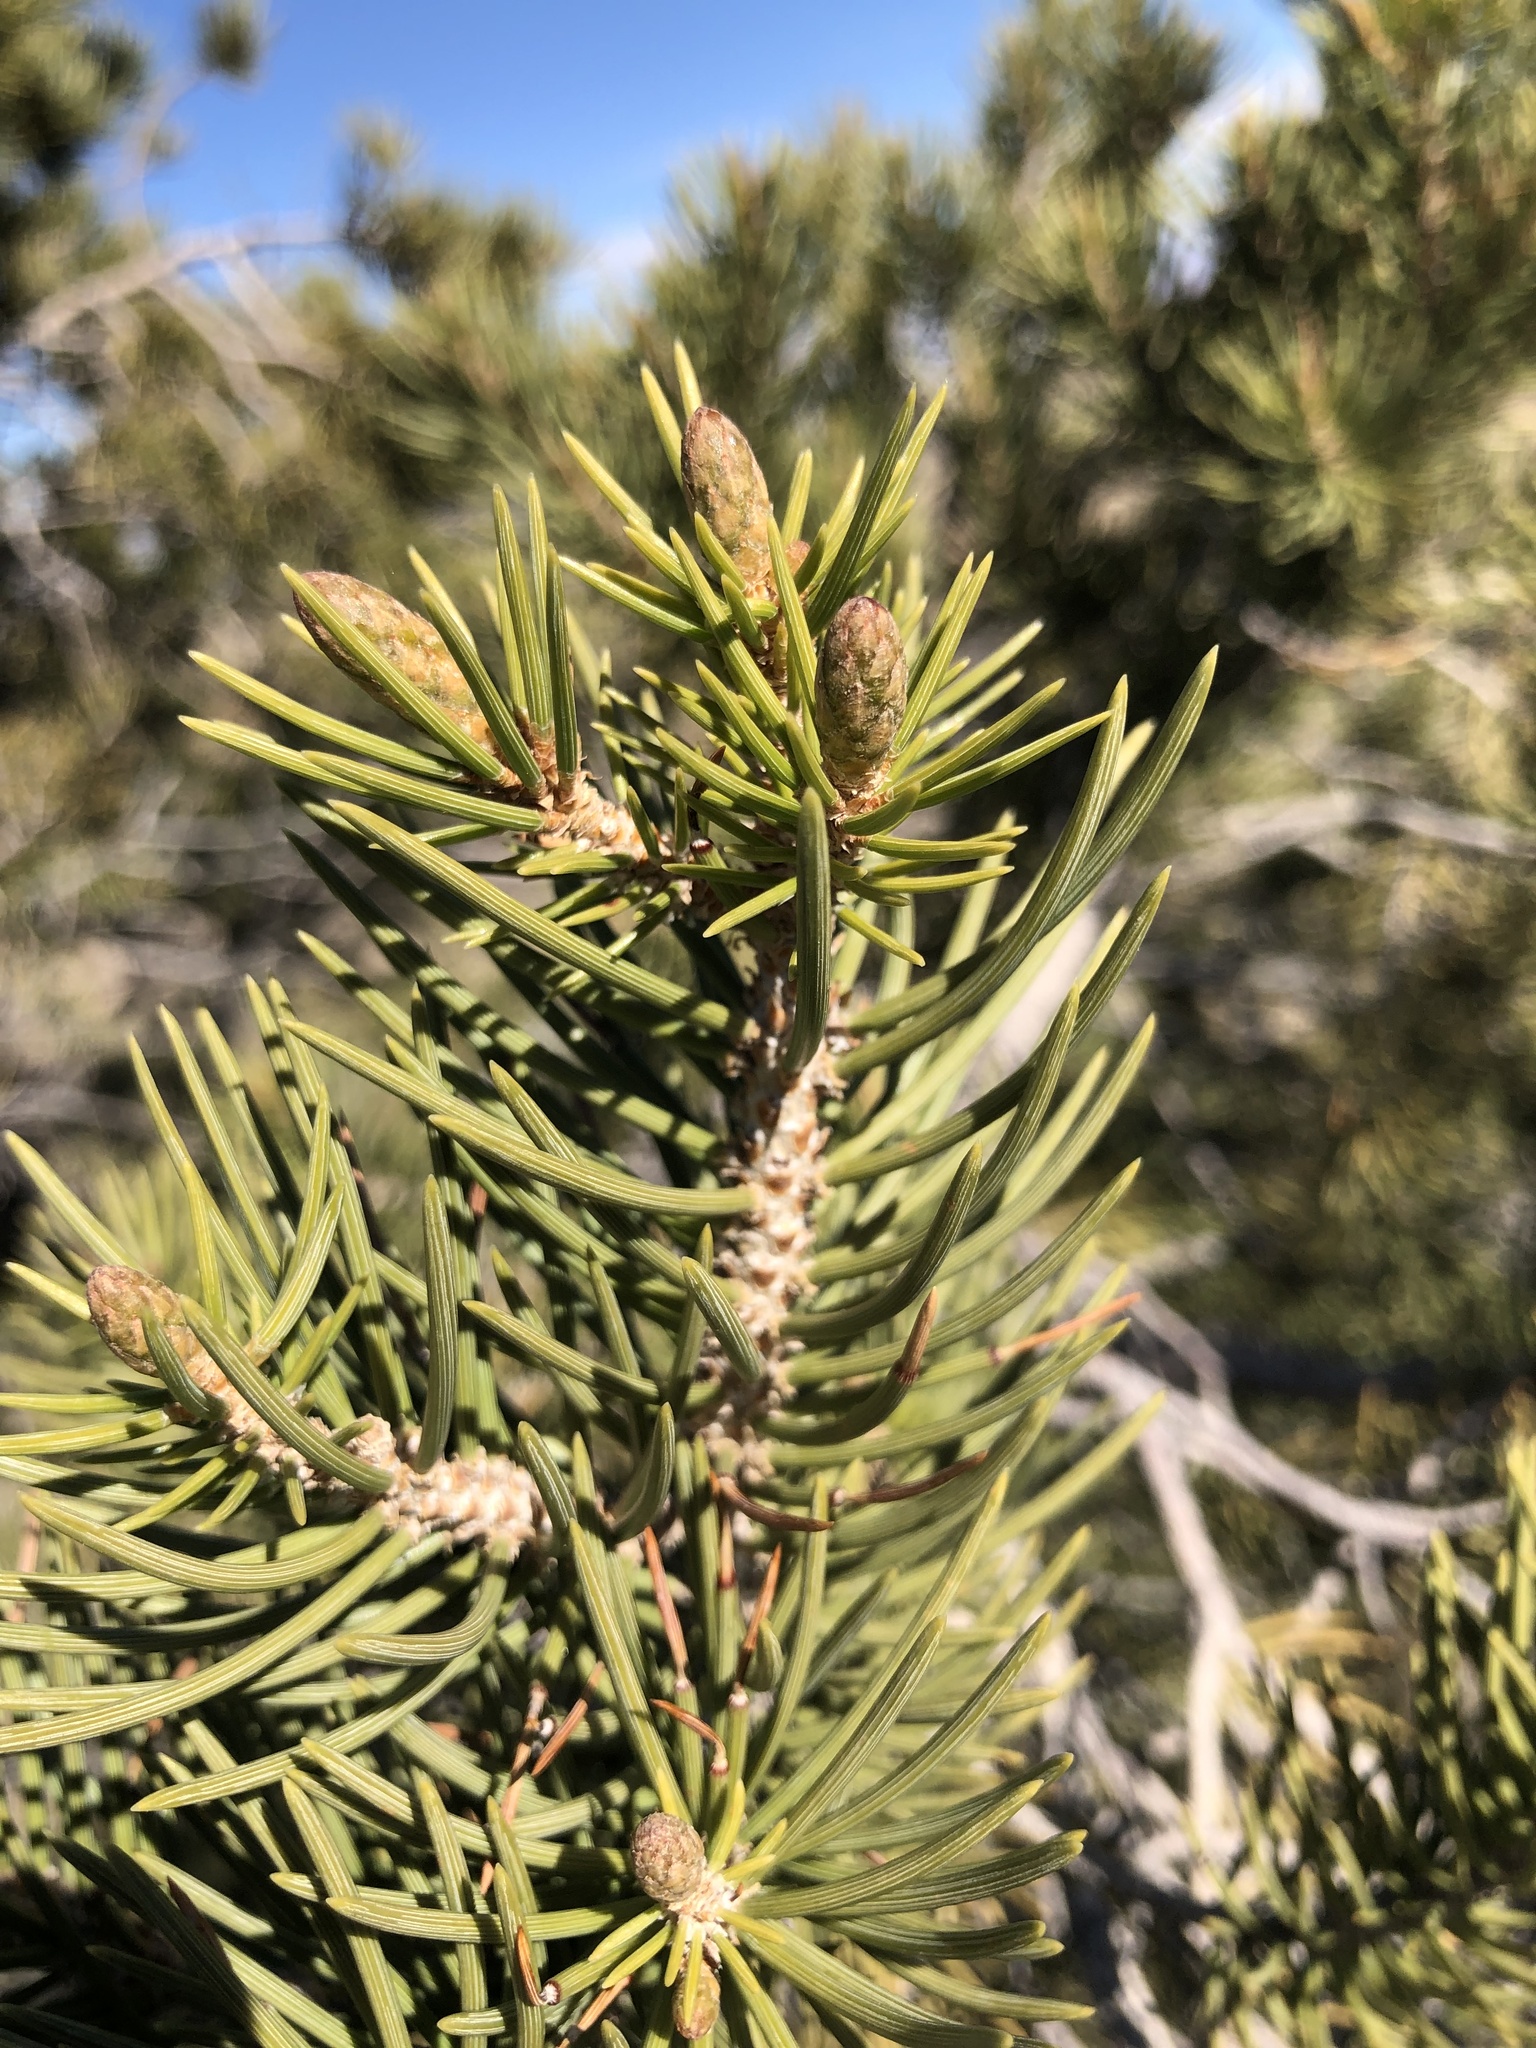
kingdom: Plantae
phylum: Tracheophyta
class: Pinopsida
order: Pinales
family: Pinaceae
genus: Pinus
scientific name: Pinus monophylla
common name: One-leaved nut pine
